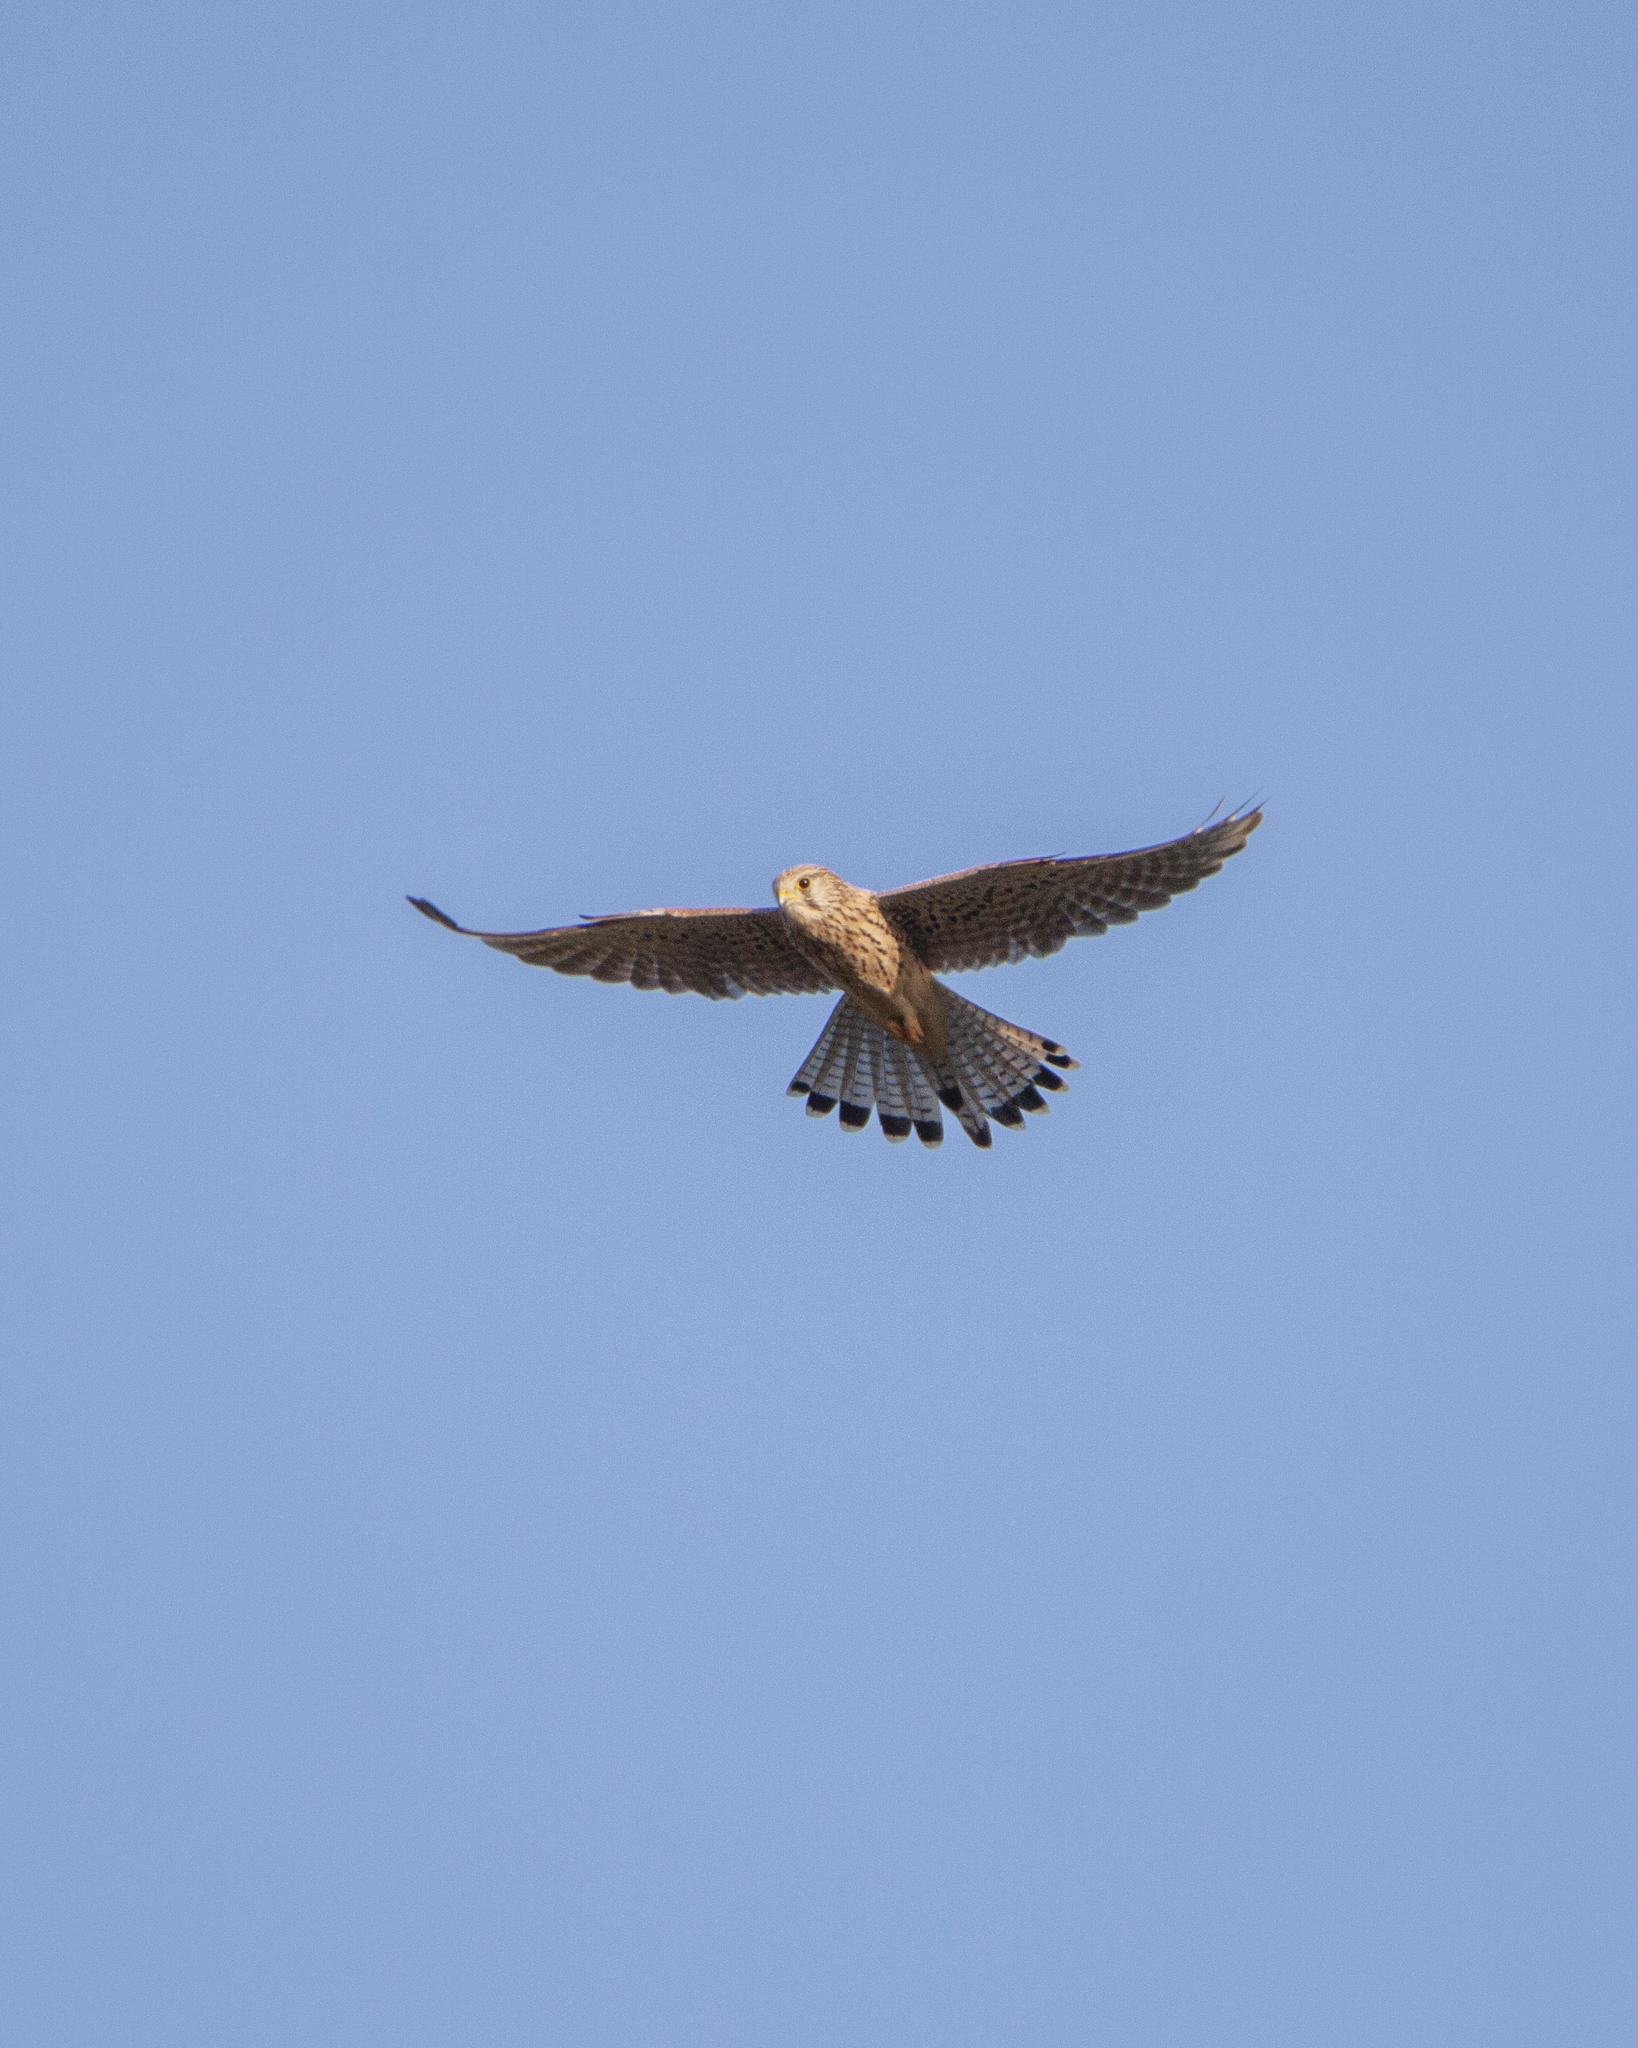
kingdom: Animalia
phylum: Chordata
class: Aves
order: Falconiformes
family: Falconidae
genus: Falco
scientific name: Falco tinnunculus
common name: Common kestrel
